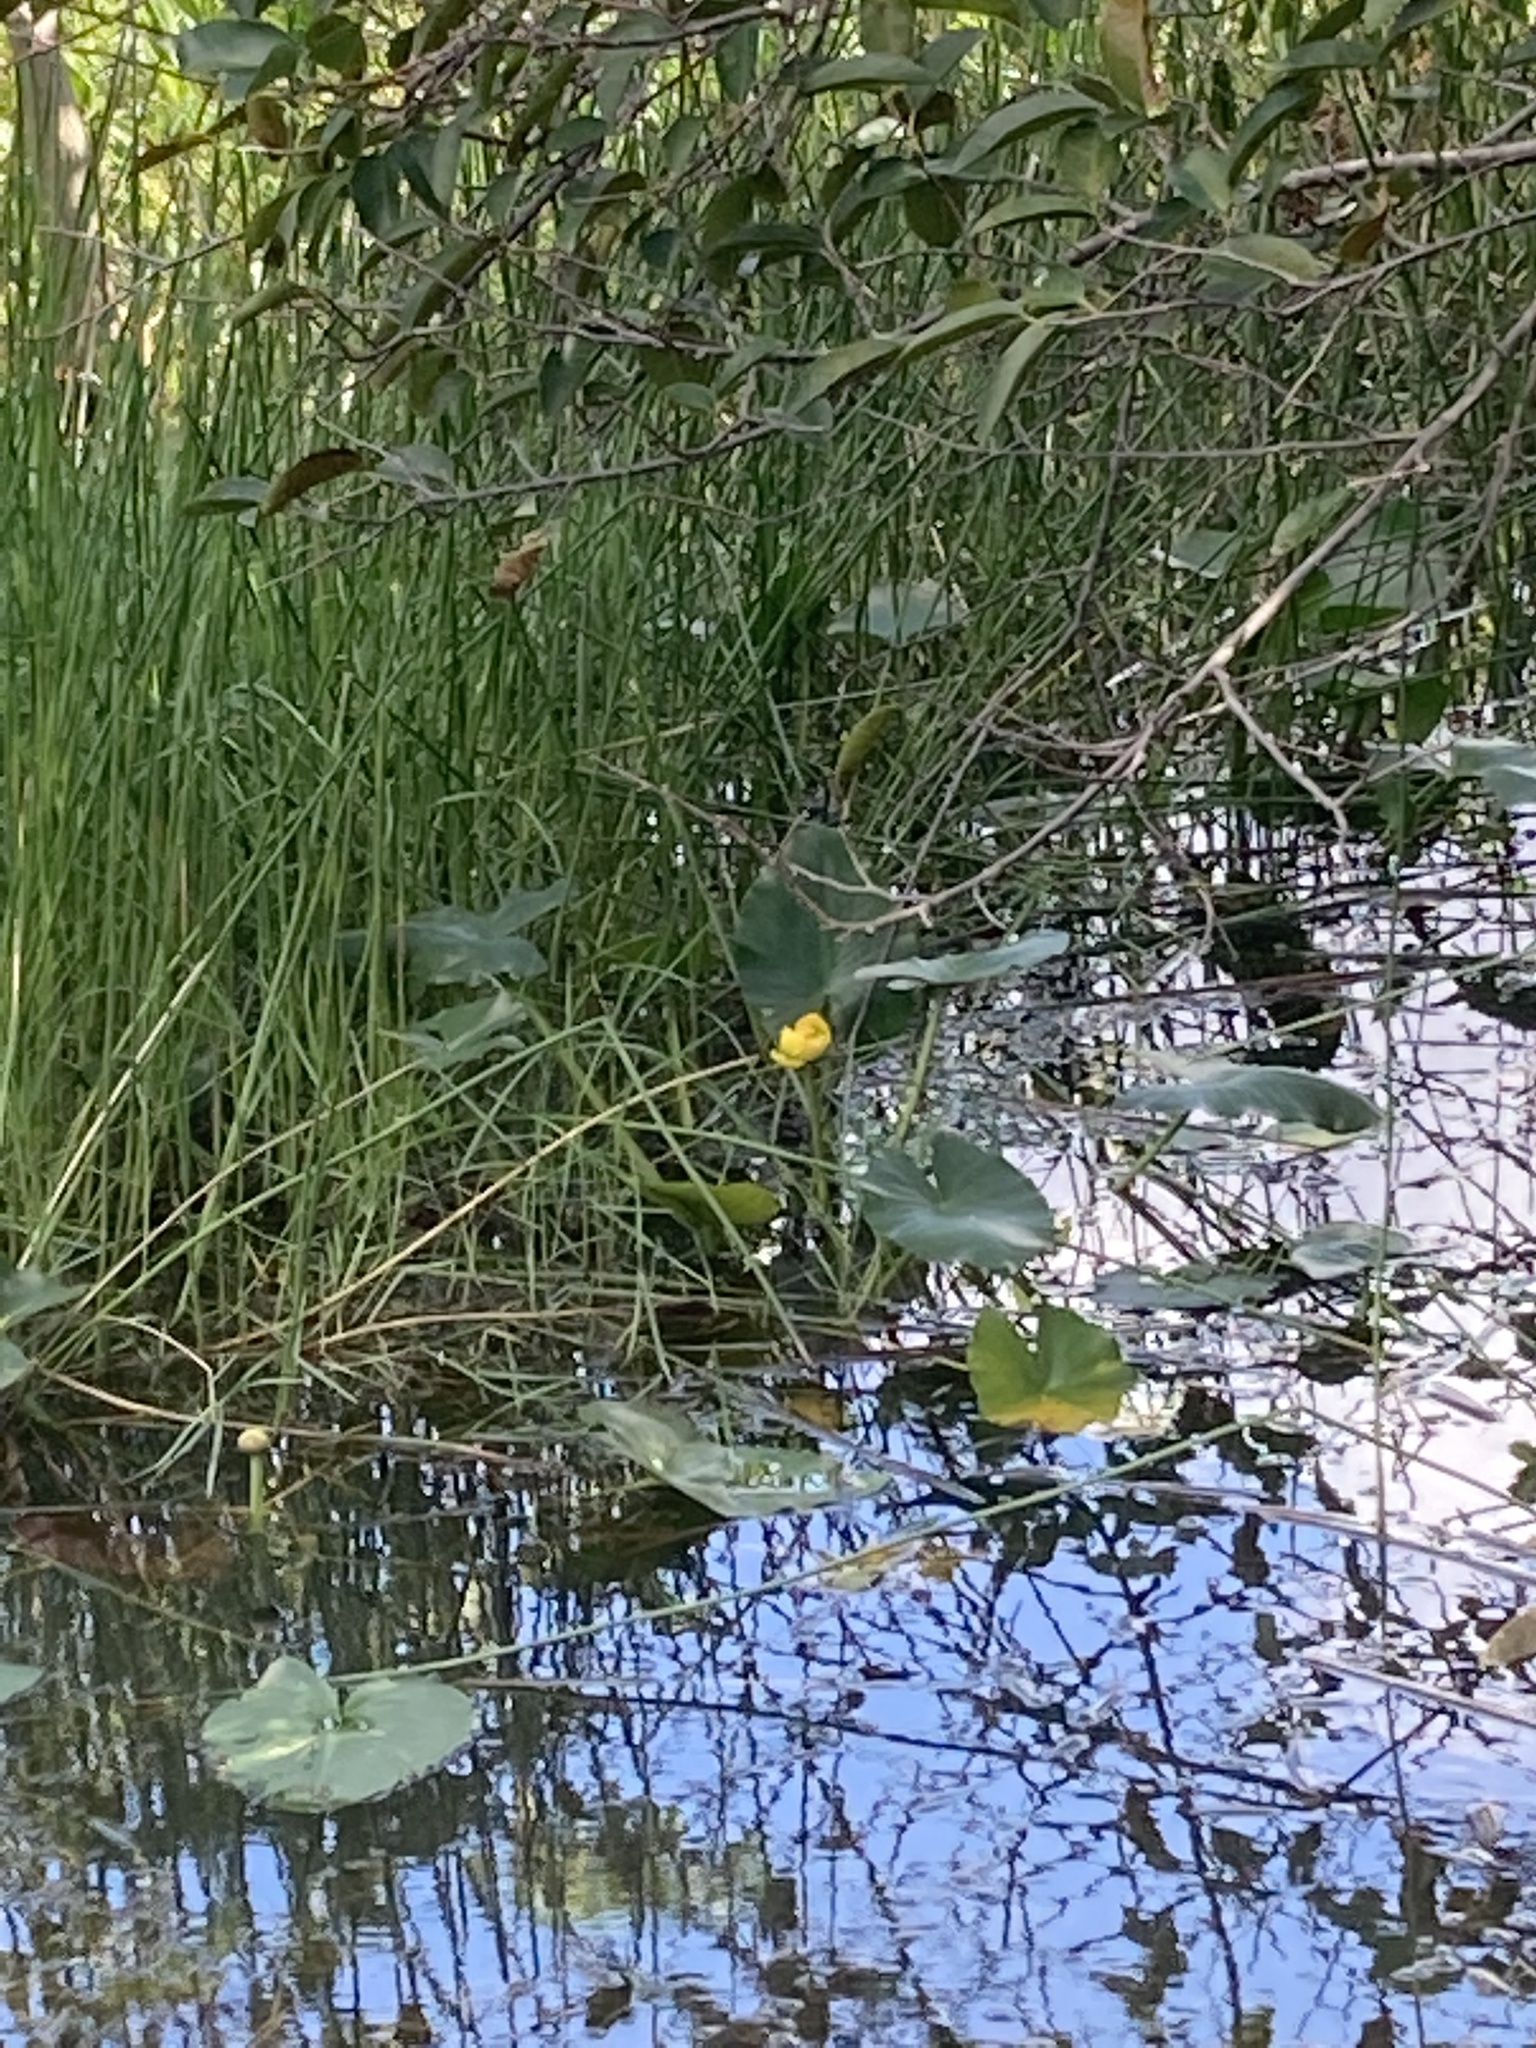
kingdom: Plantae
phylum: Tracheophyta
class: Magnoliopsida
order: Nymphaeales
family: Nymphaeaceae
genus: Nuphar
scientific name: Nuphar advena
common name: Spatter-dock
